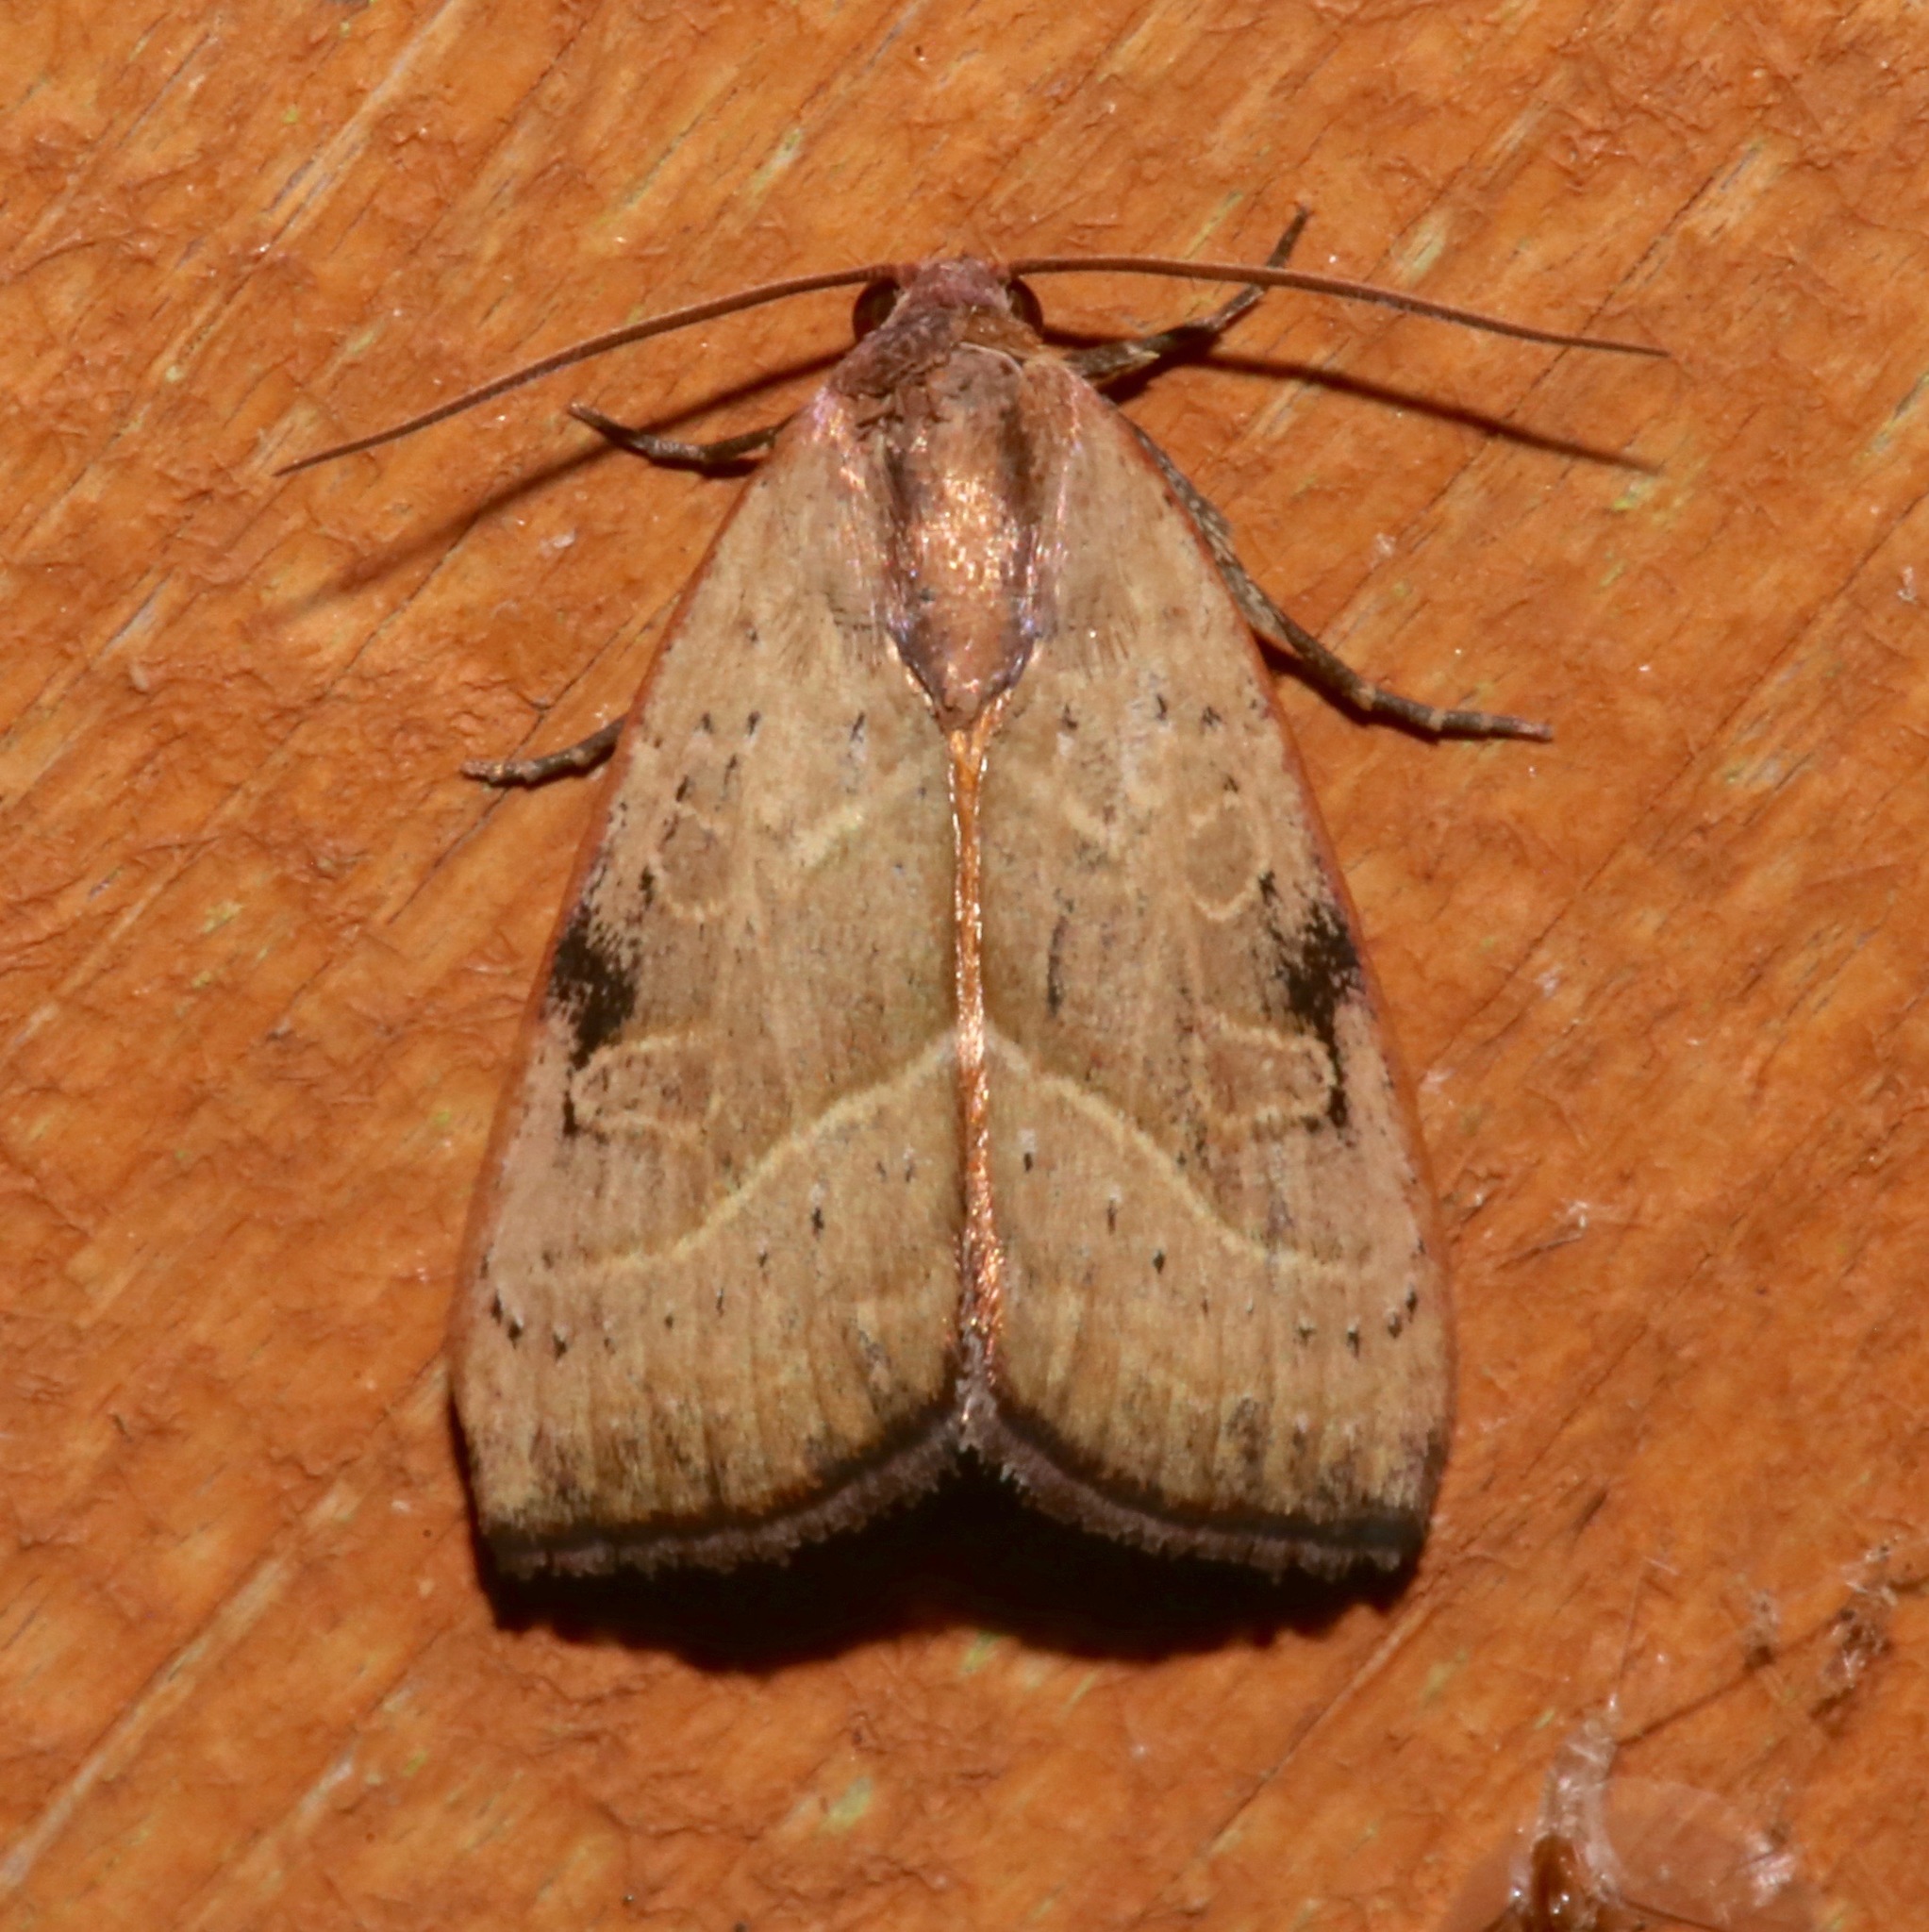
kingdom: Animalia
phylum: Arthropoda
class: Insecta
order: Lepidoptera
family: Noctuidae
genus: Galgula
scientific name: Galgula partita
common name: Wedgeling
